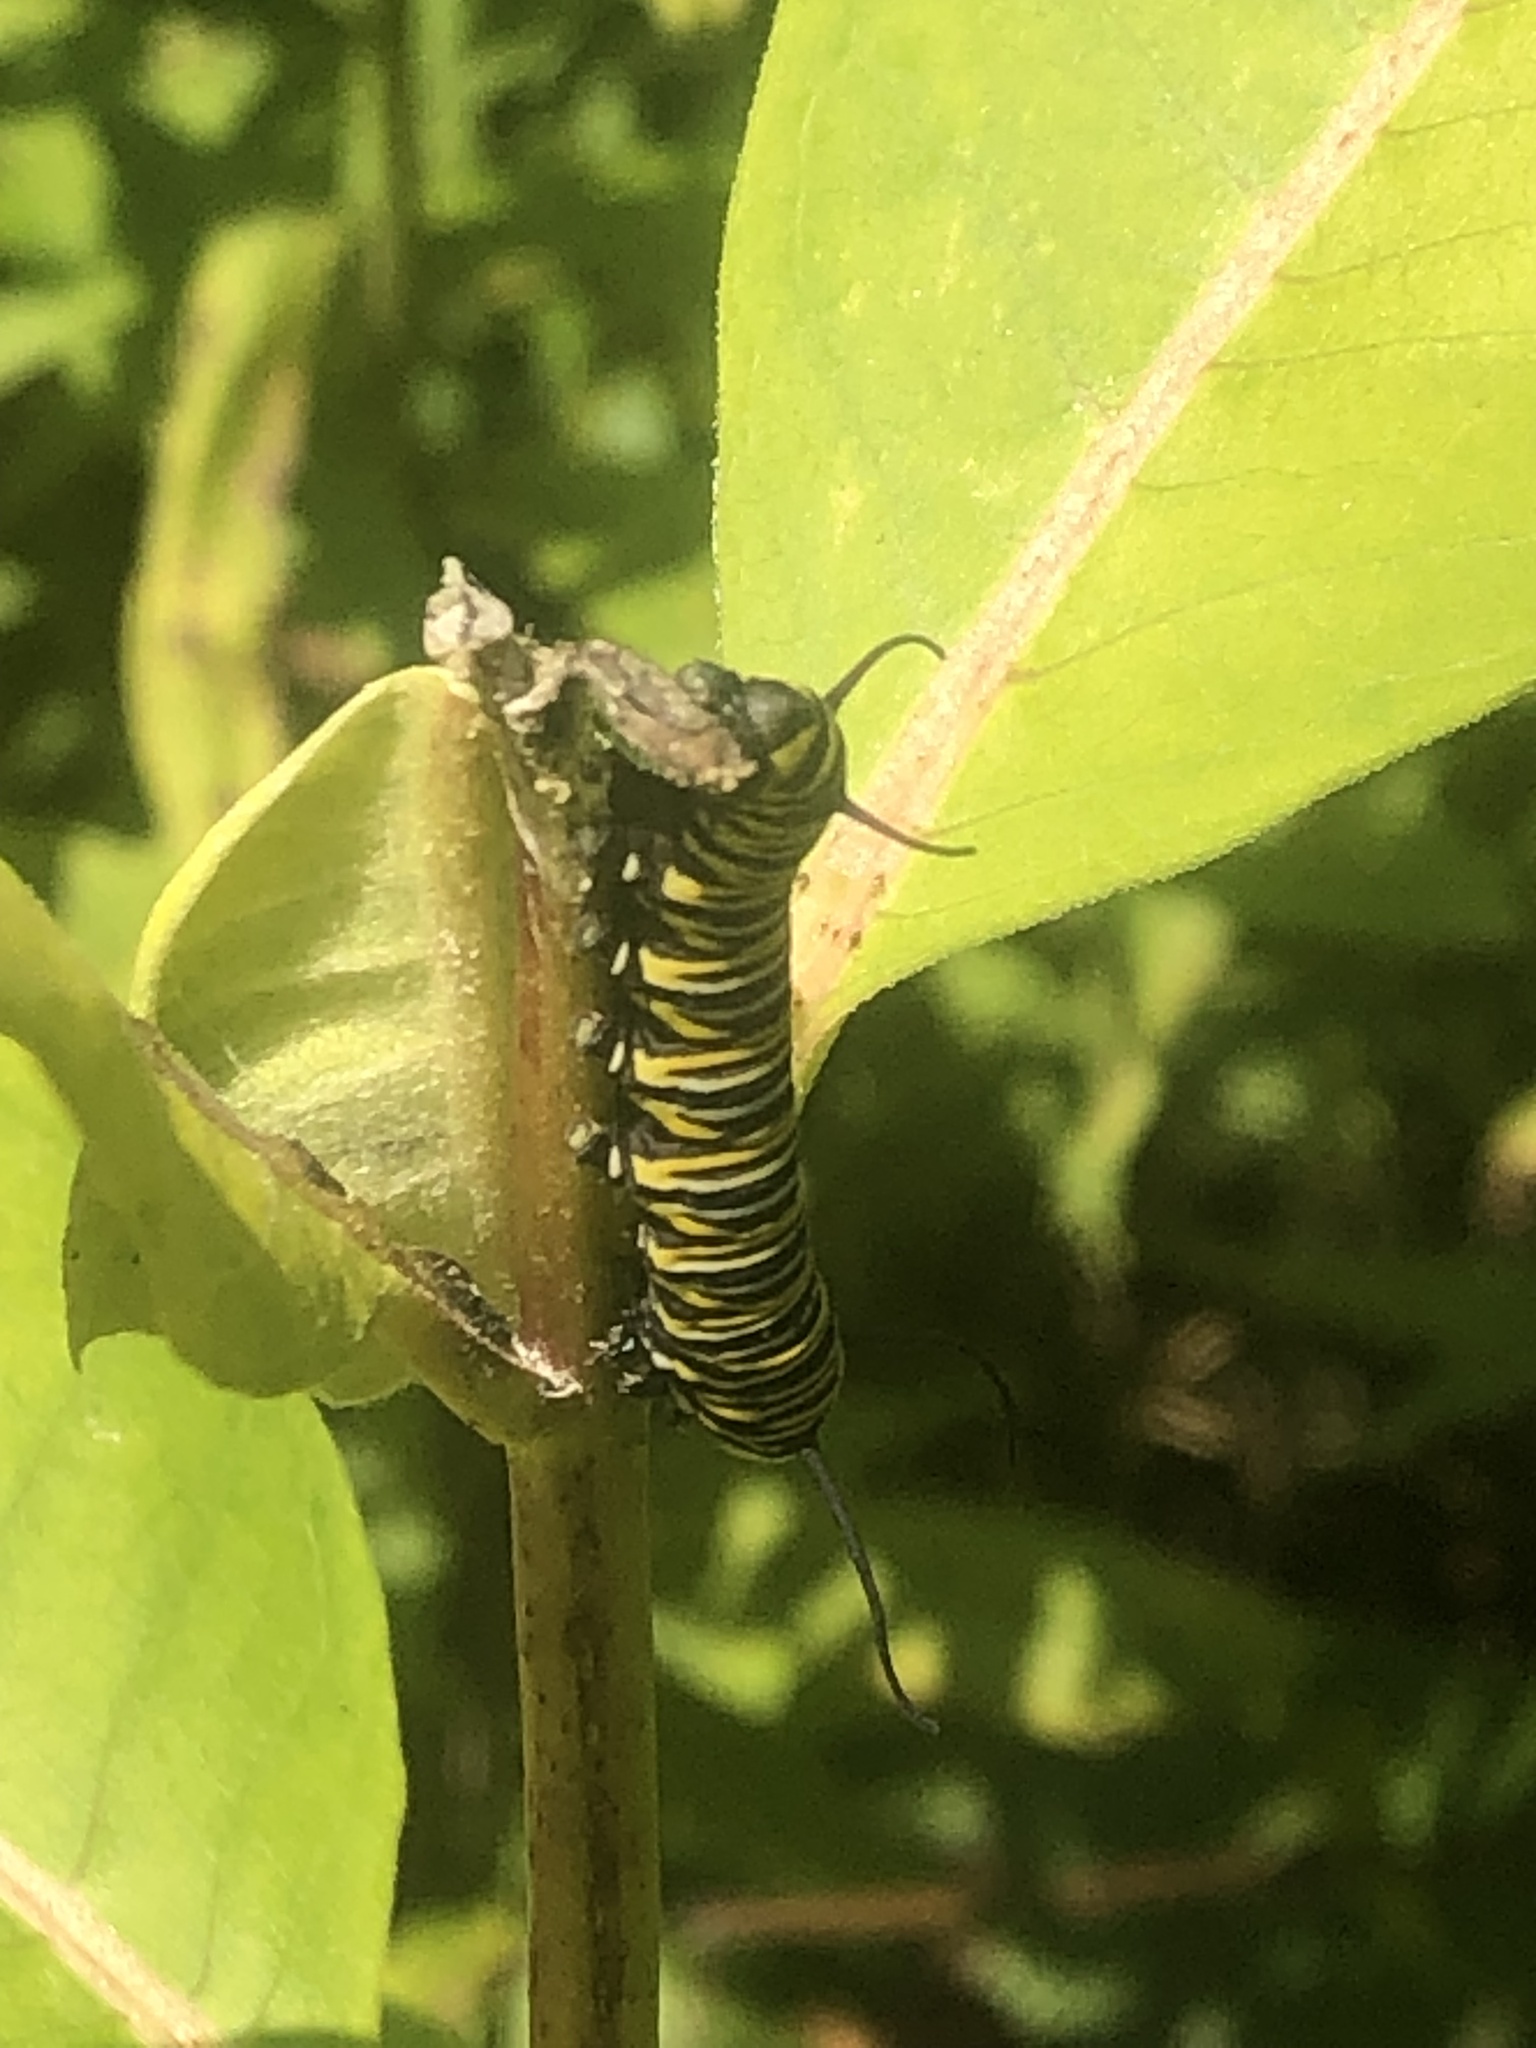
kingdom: Animalia
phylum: Arthropoda
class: Insecta
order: Lepidoptera
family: Nymphalidae
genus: Danaus
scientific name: Danaus plexippus
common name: Monarch
